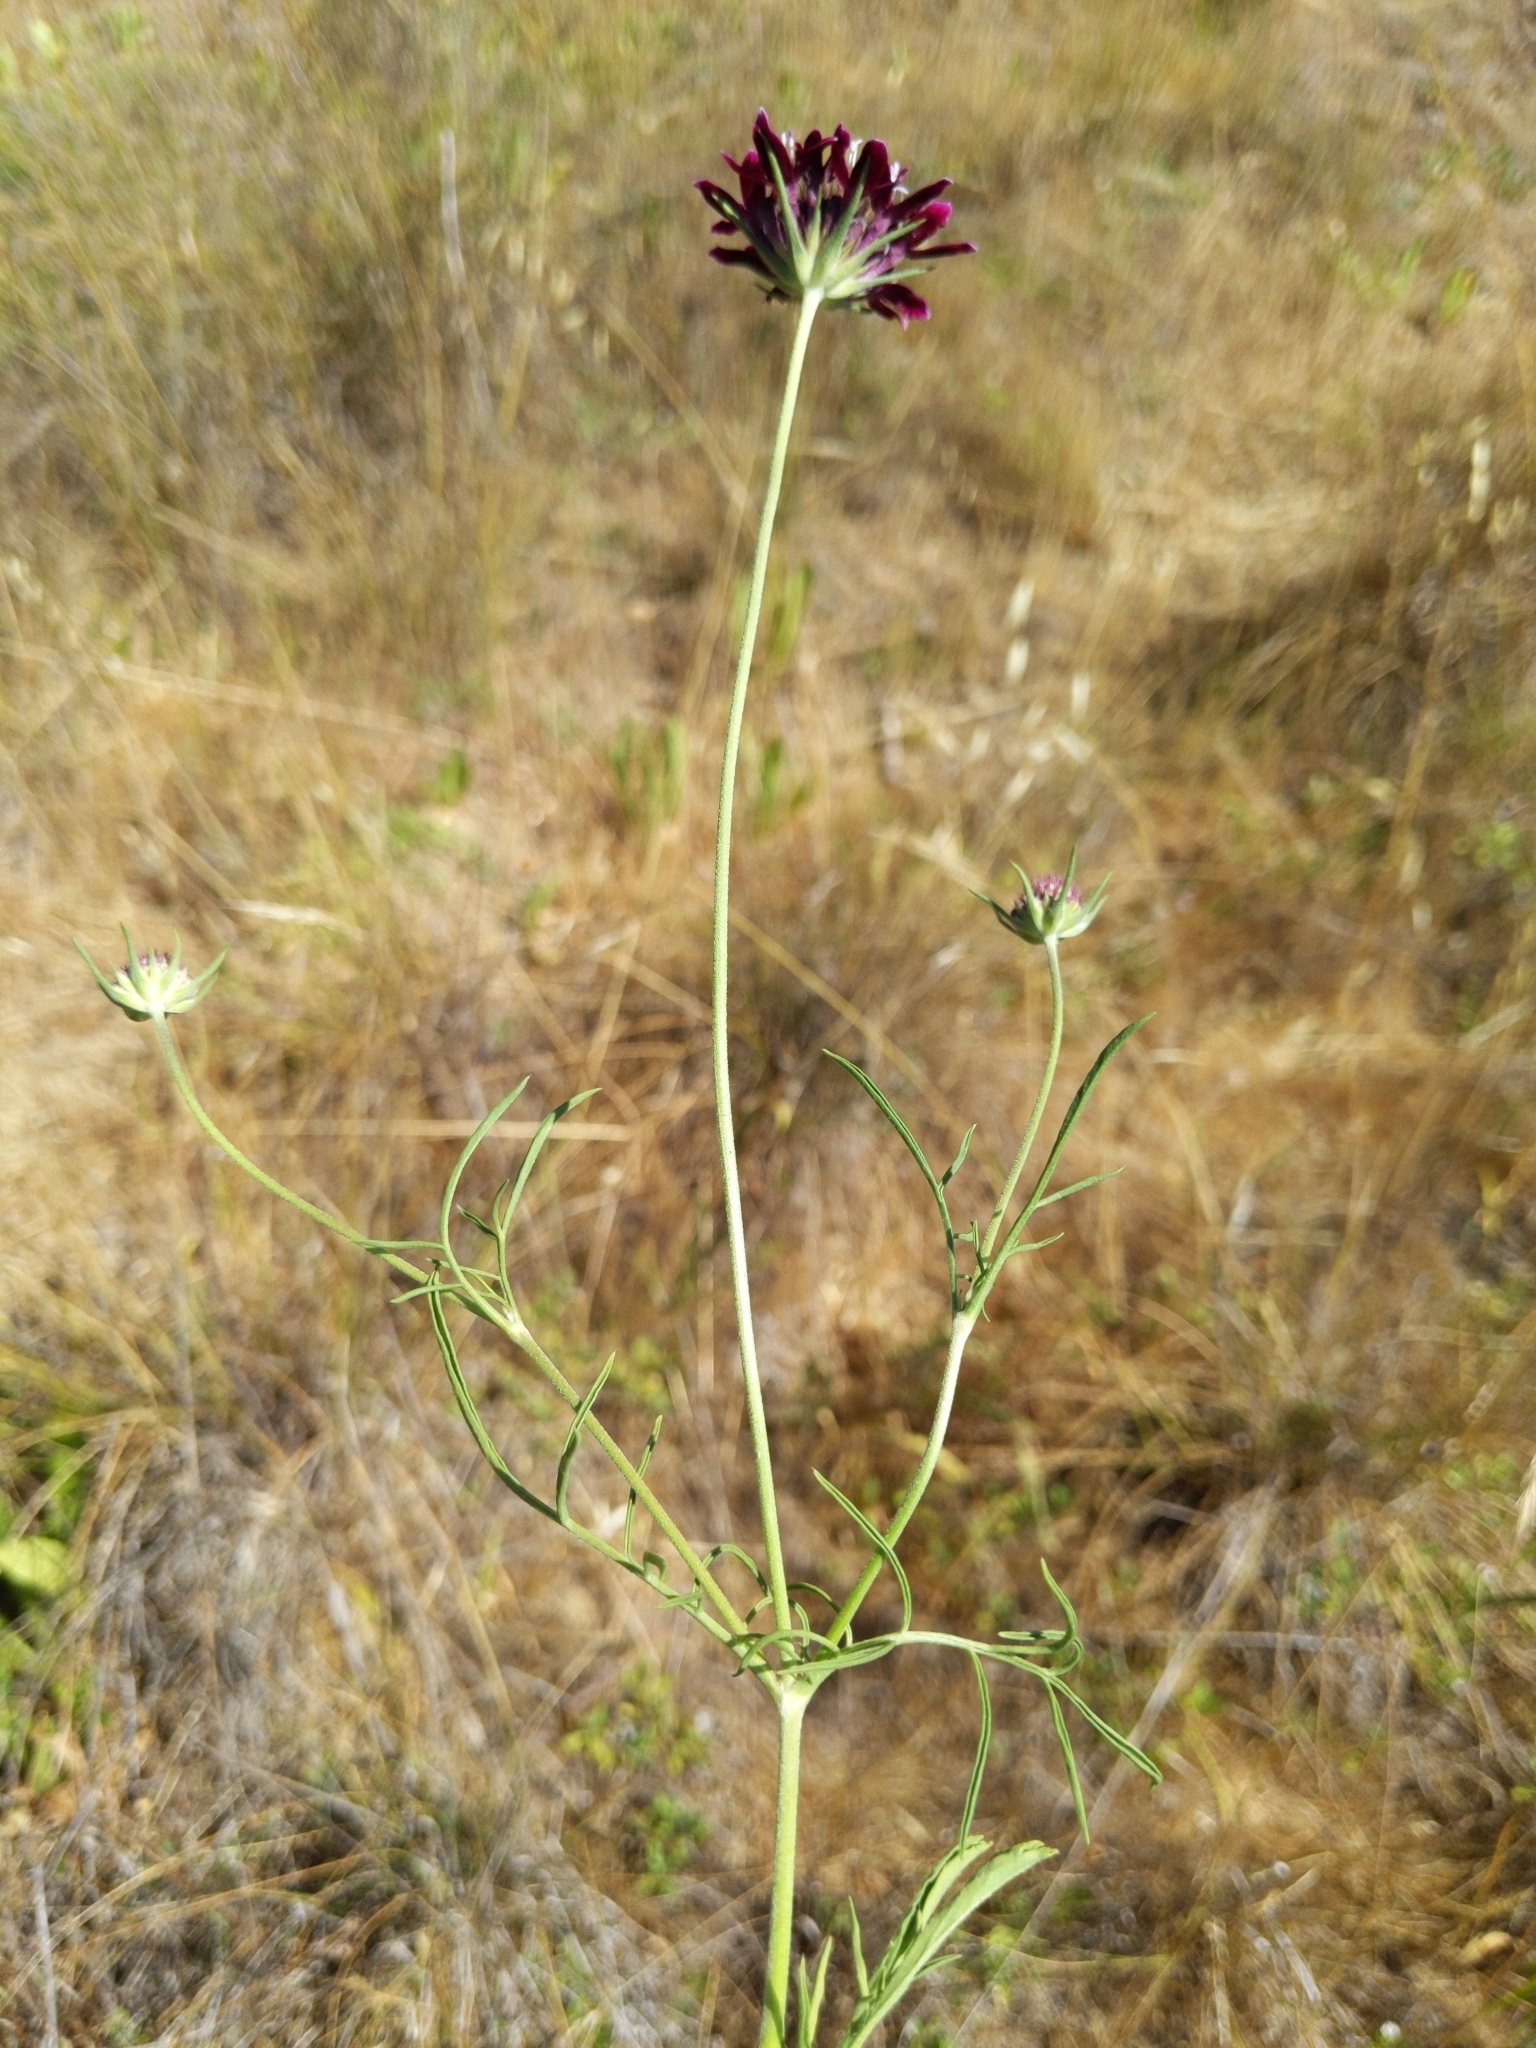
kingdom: Plantae
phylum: Tracheophyta
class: Magnoliopsida
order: Dipsacales
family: Caprifoliaceae
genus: Sixalix
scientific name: Sixalix atropurpurea
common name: Sweet scabious
